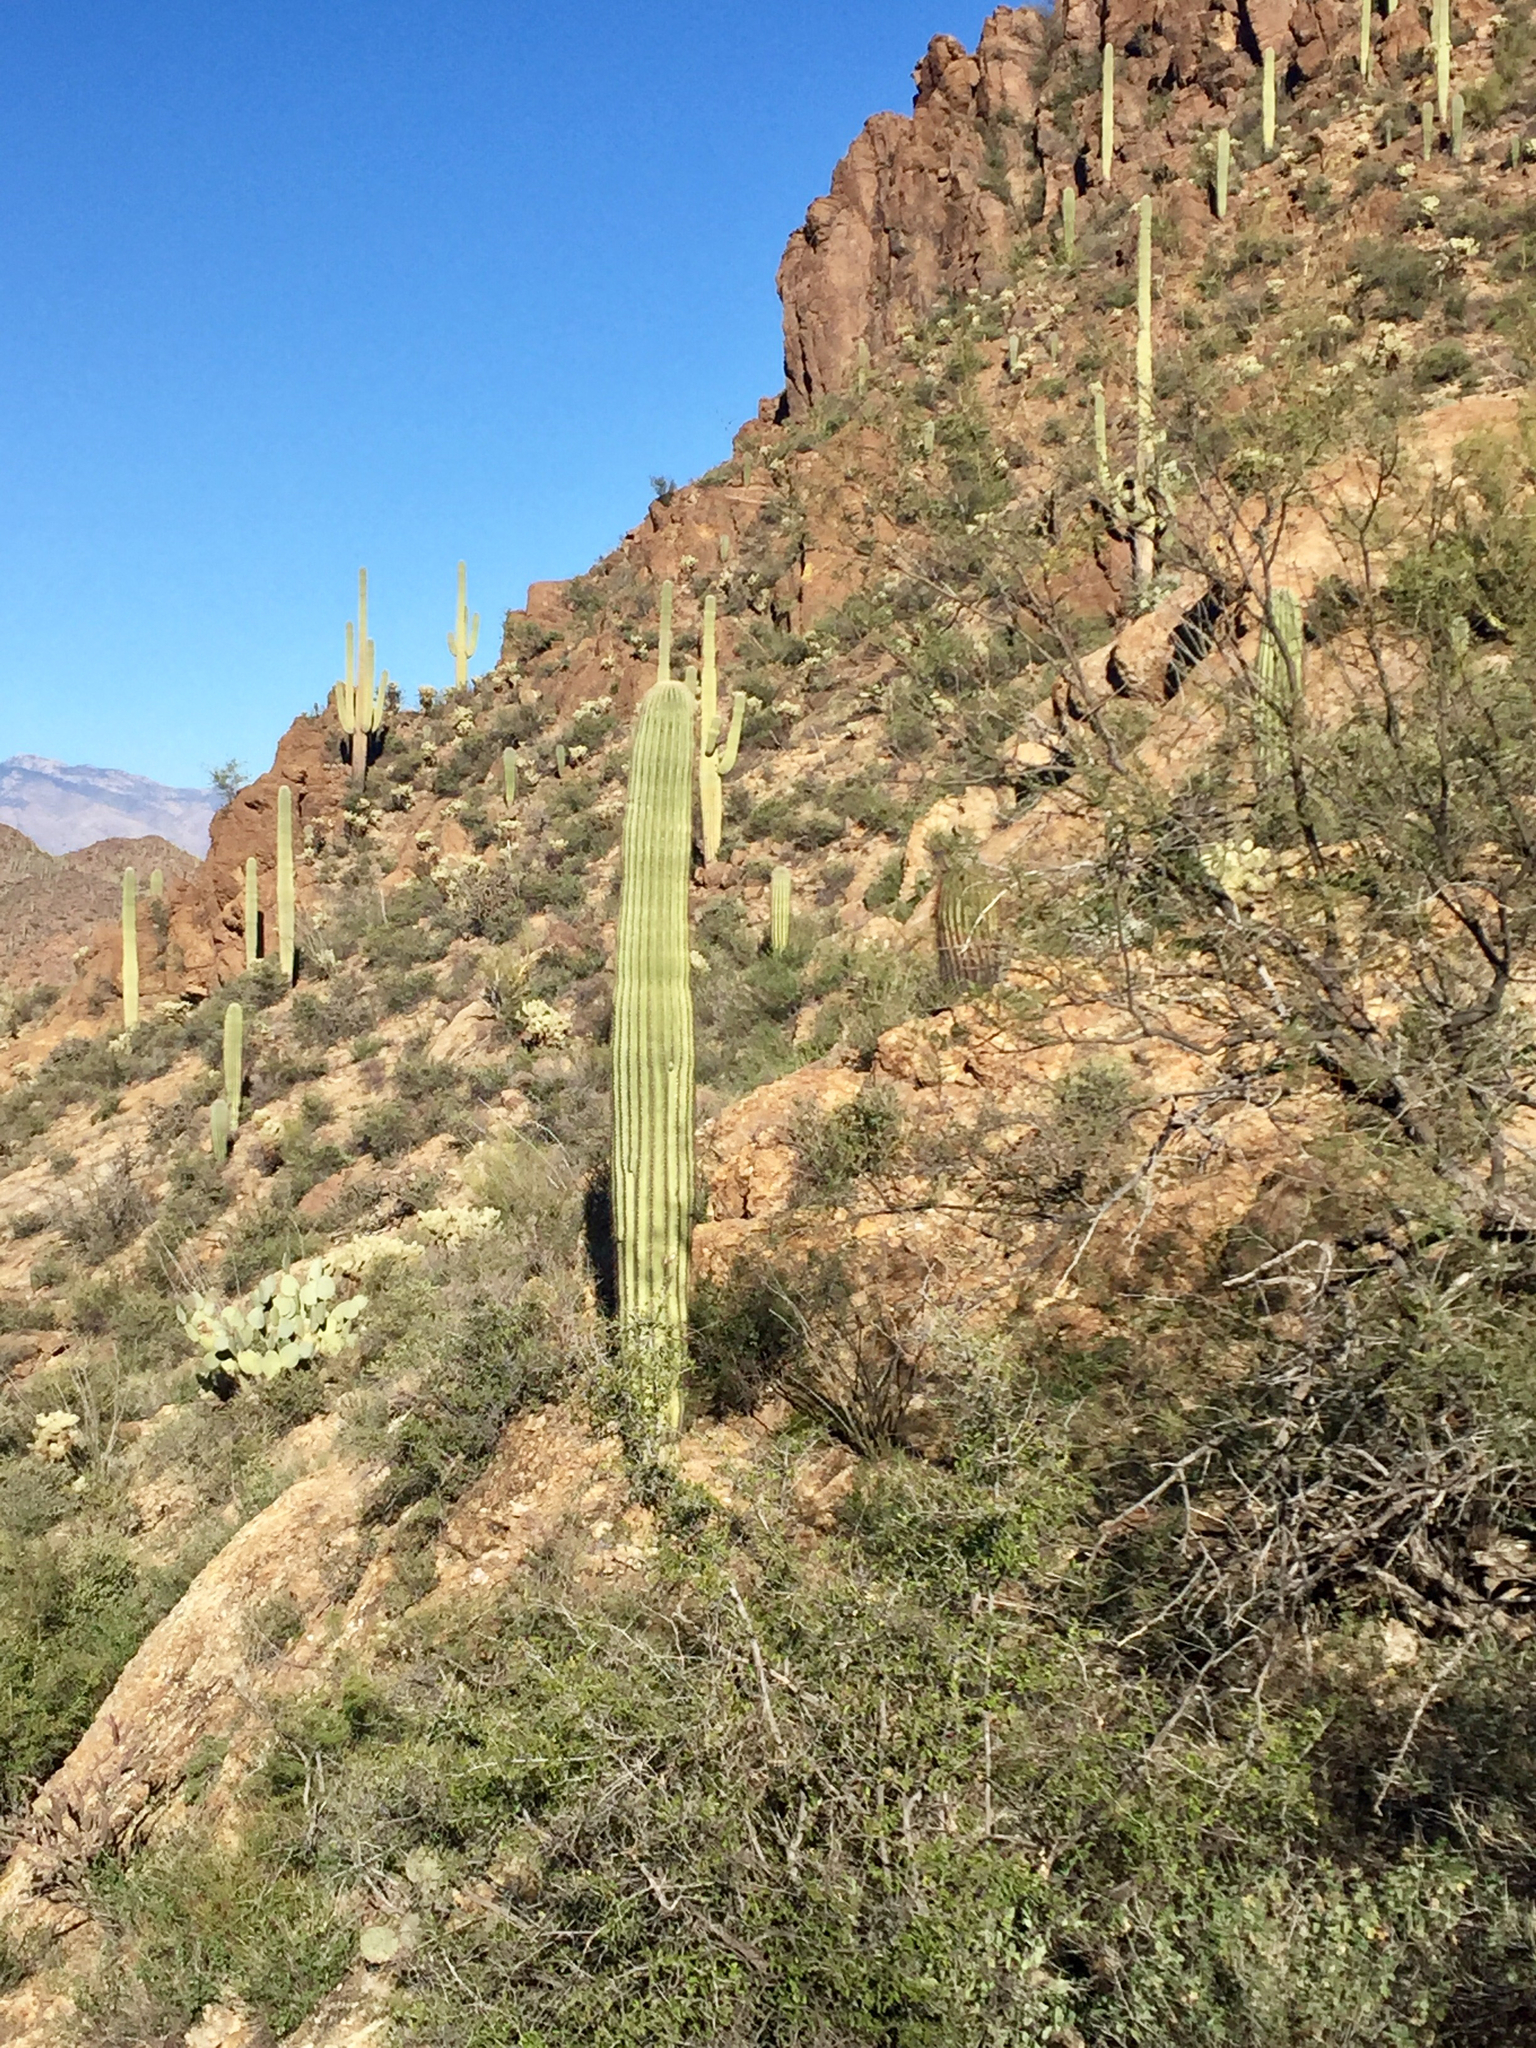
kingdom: Plantae
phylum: Tracheophyta
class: Magnoliopsida
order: Caryophyllales
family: Cactaceae
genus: Carnegiea
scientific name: Carnegiea gigantea
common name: Saguaro
